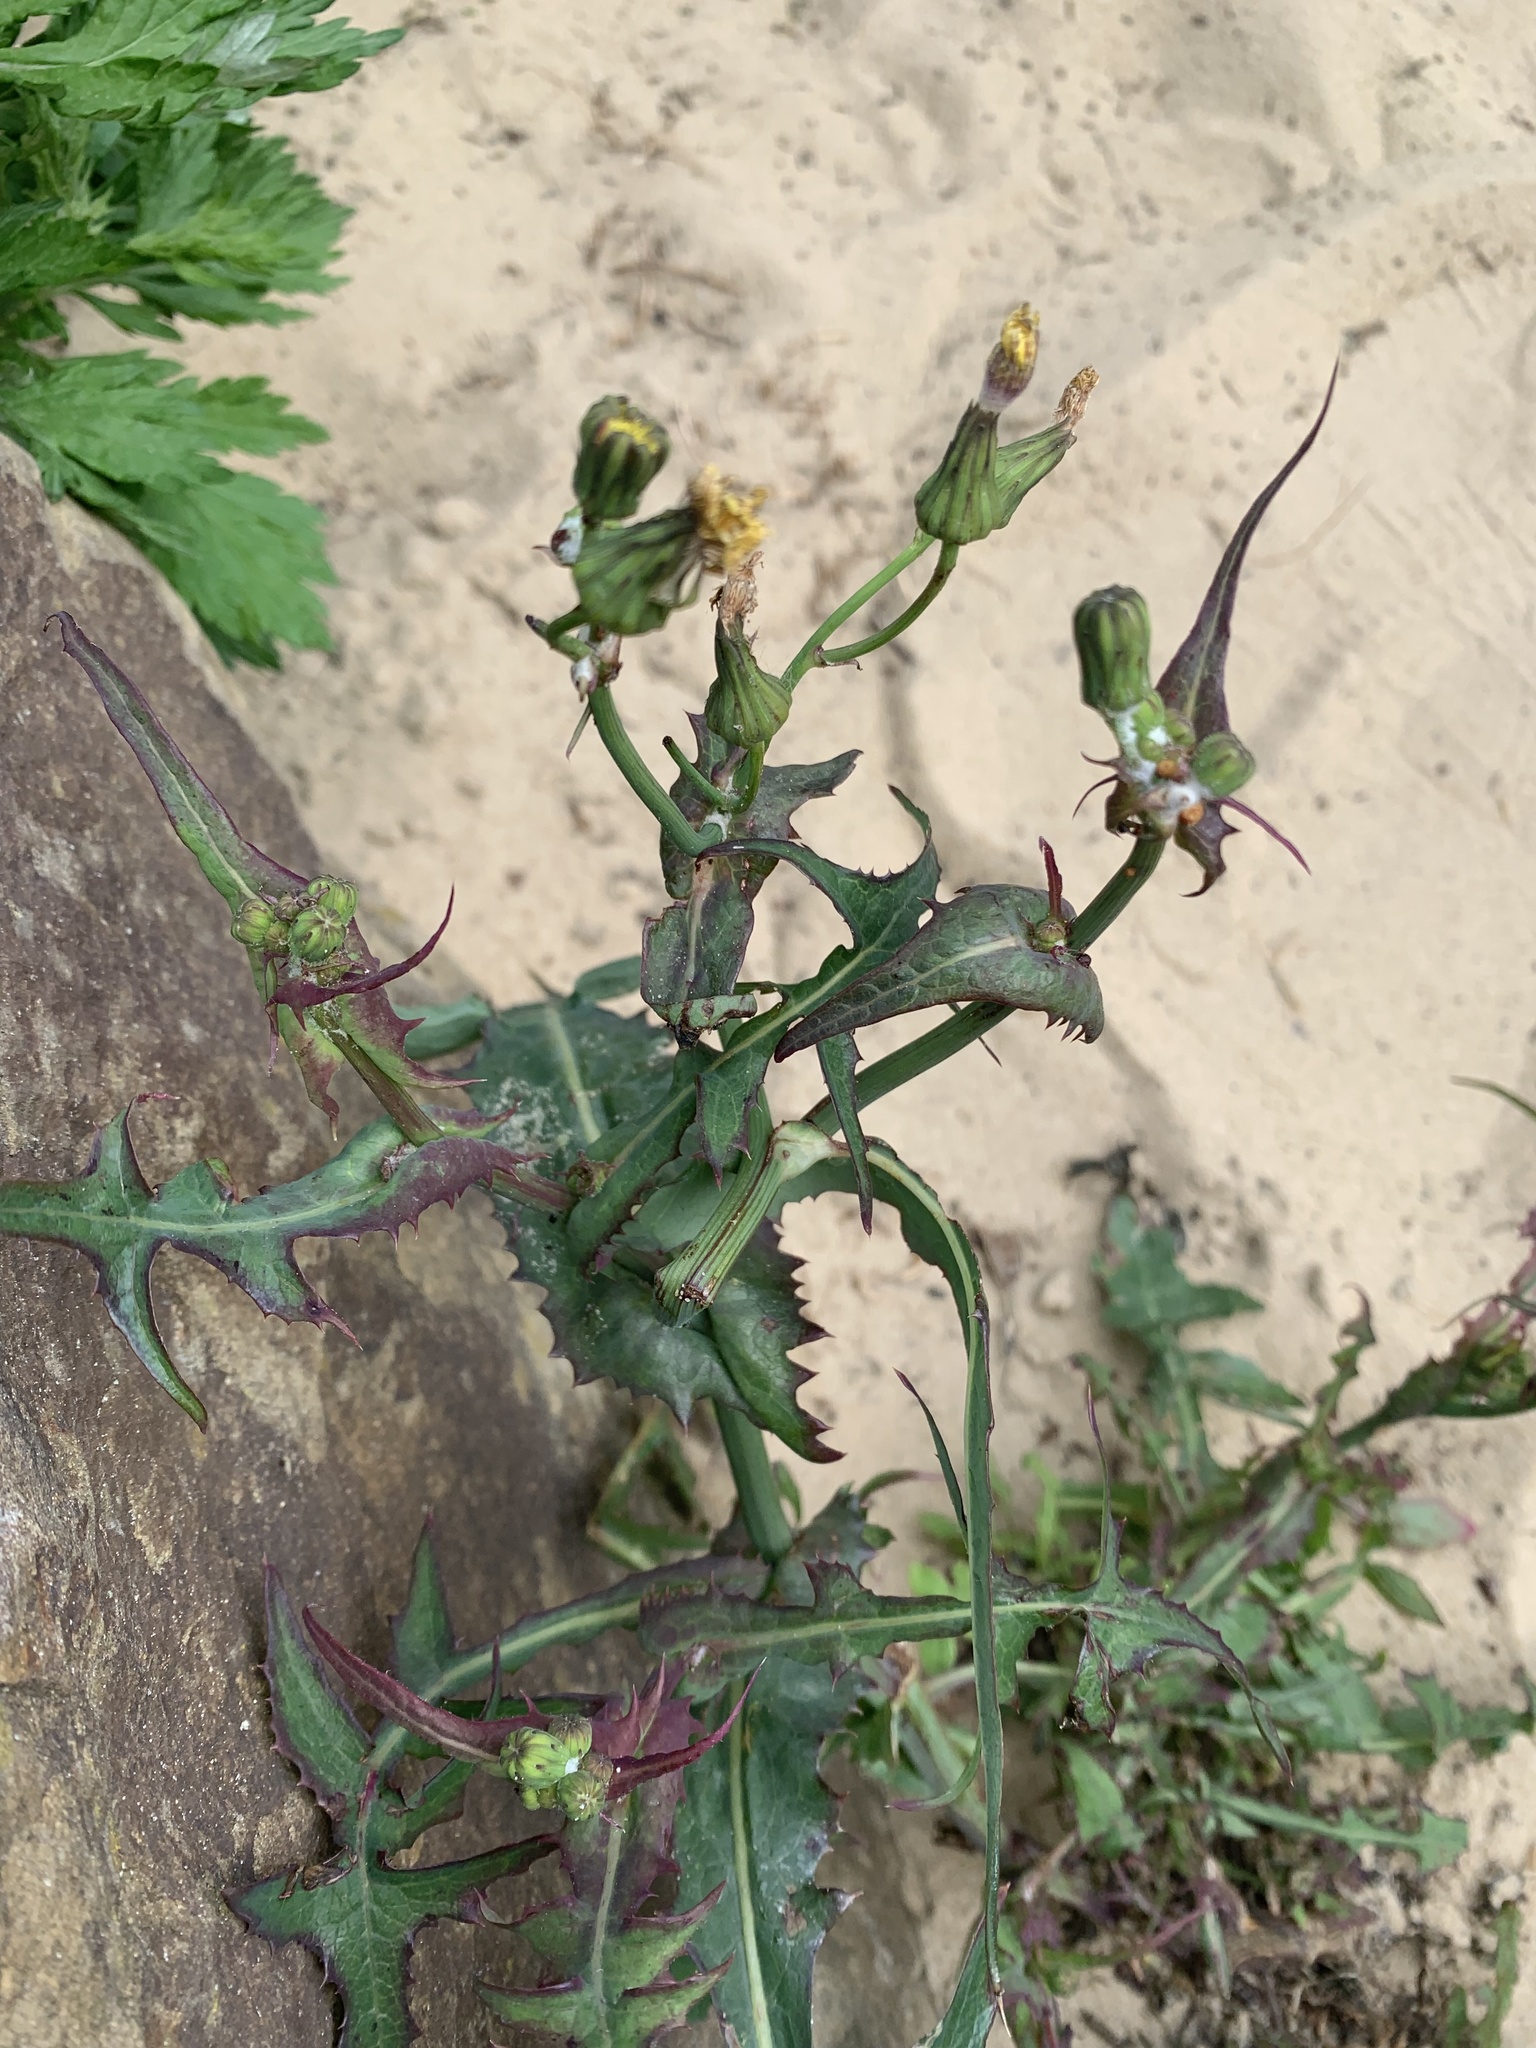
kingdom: Plantae
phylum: Tracheophyta
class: Magnoliopsida
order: Asterales
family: Asteraceae
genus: Sonchus
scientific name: Sonchus oleraceus
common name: Common sowthistle
